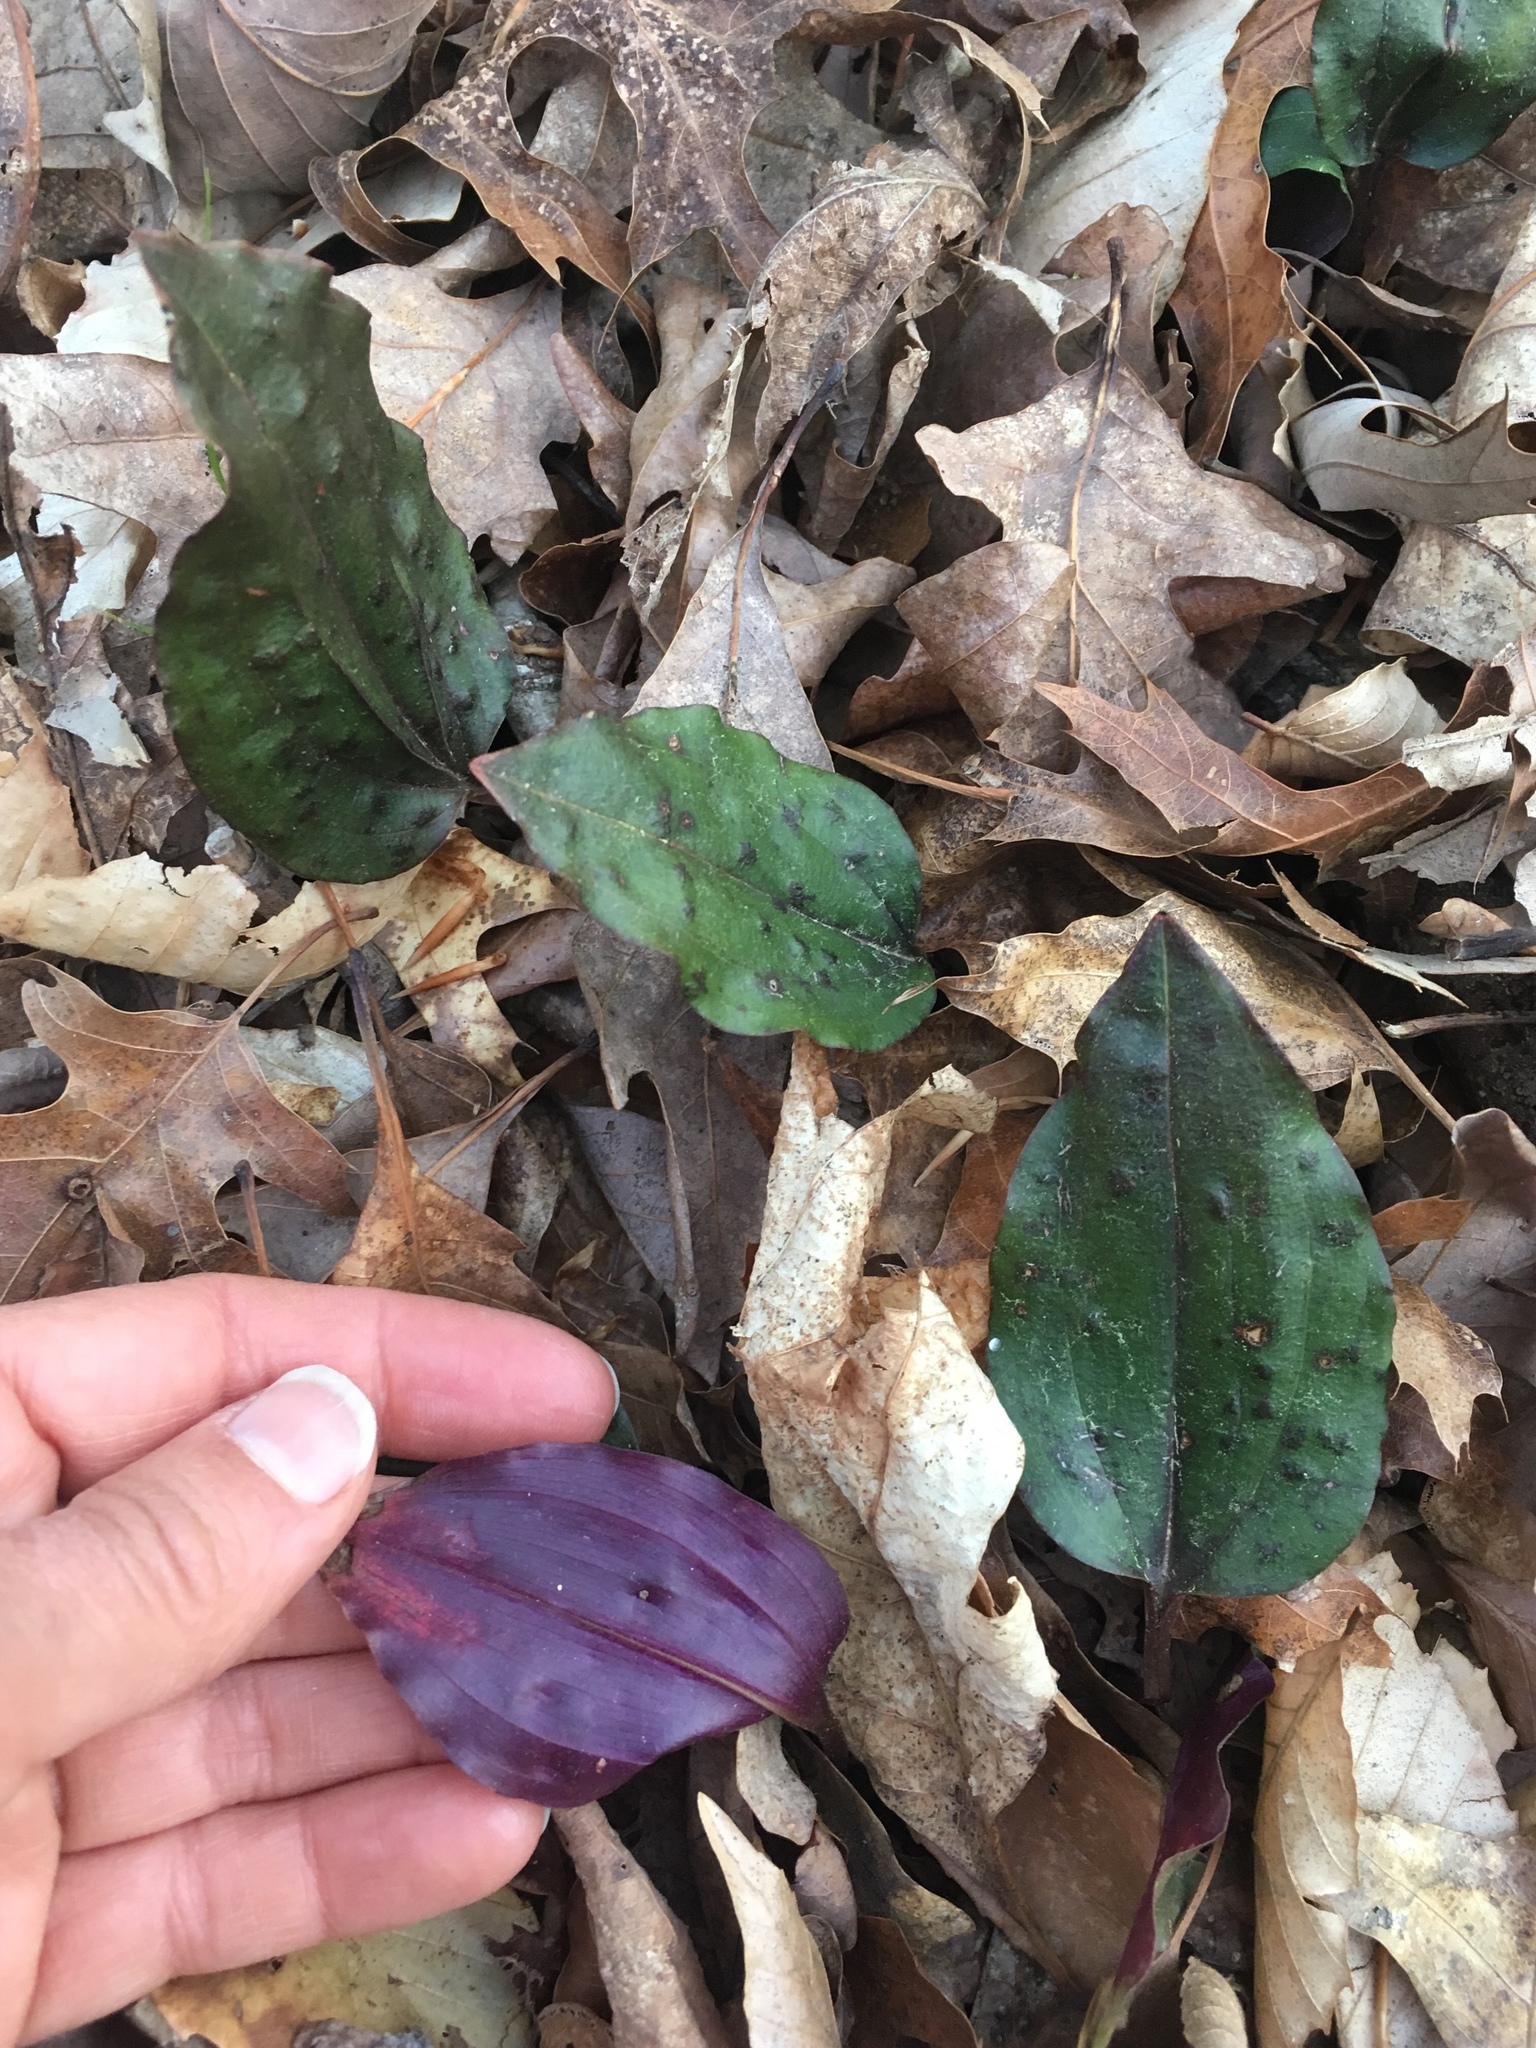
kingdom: Plantae
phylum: Tracheophyta
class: Liliopsida
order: Asparagales
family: Orchidaceae
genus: Tipularia
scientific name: Tipularia discolor
